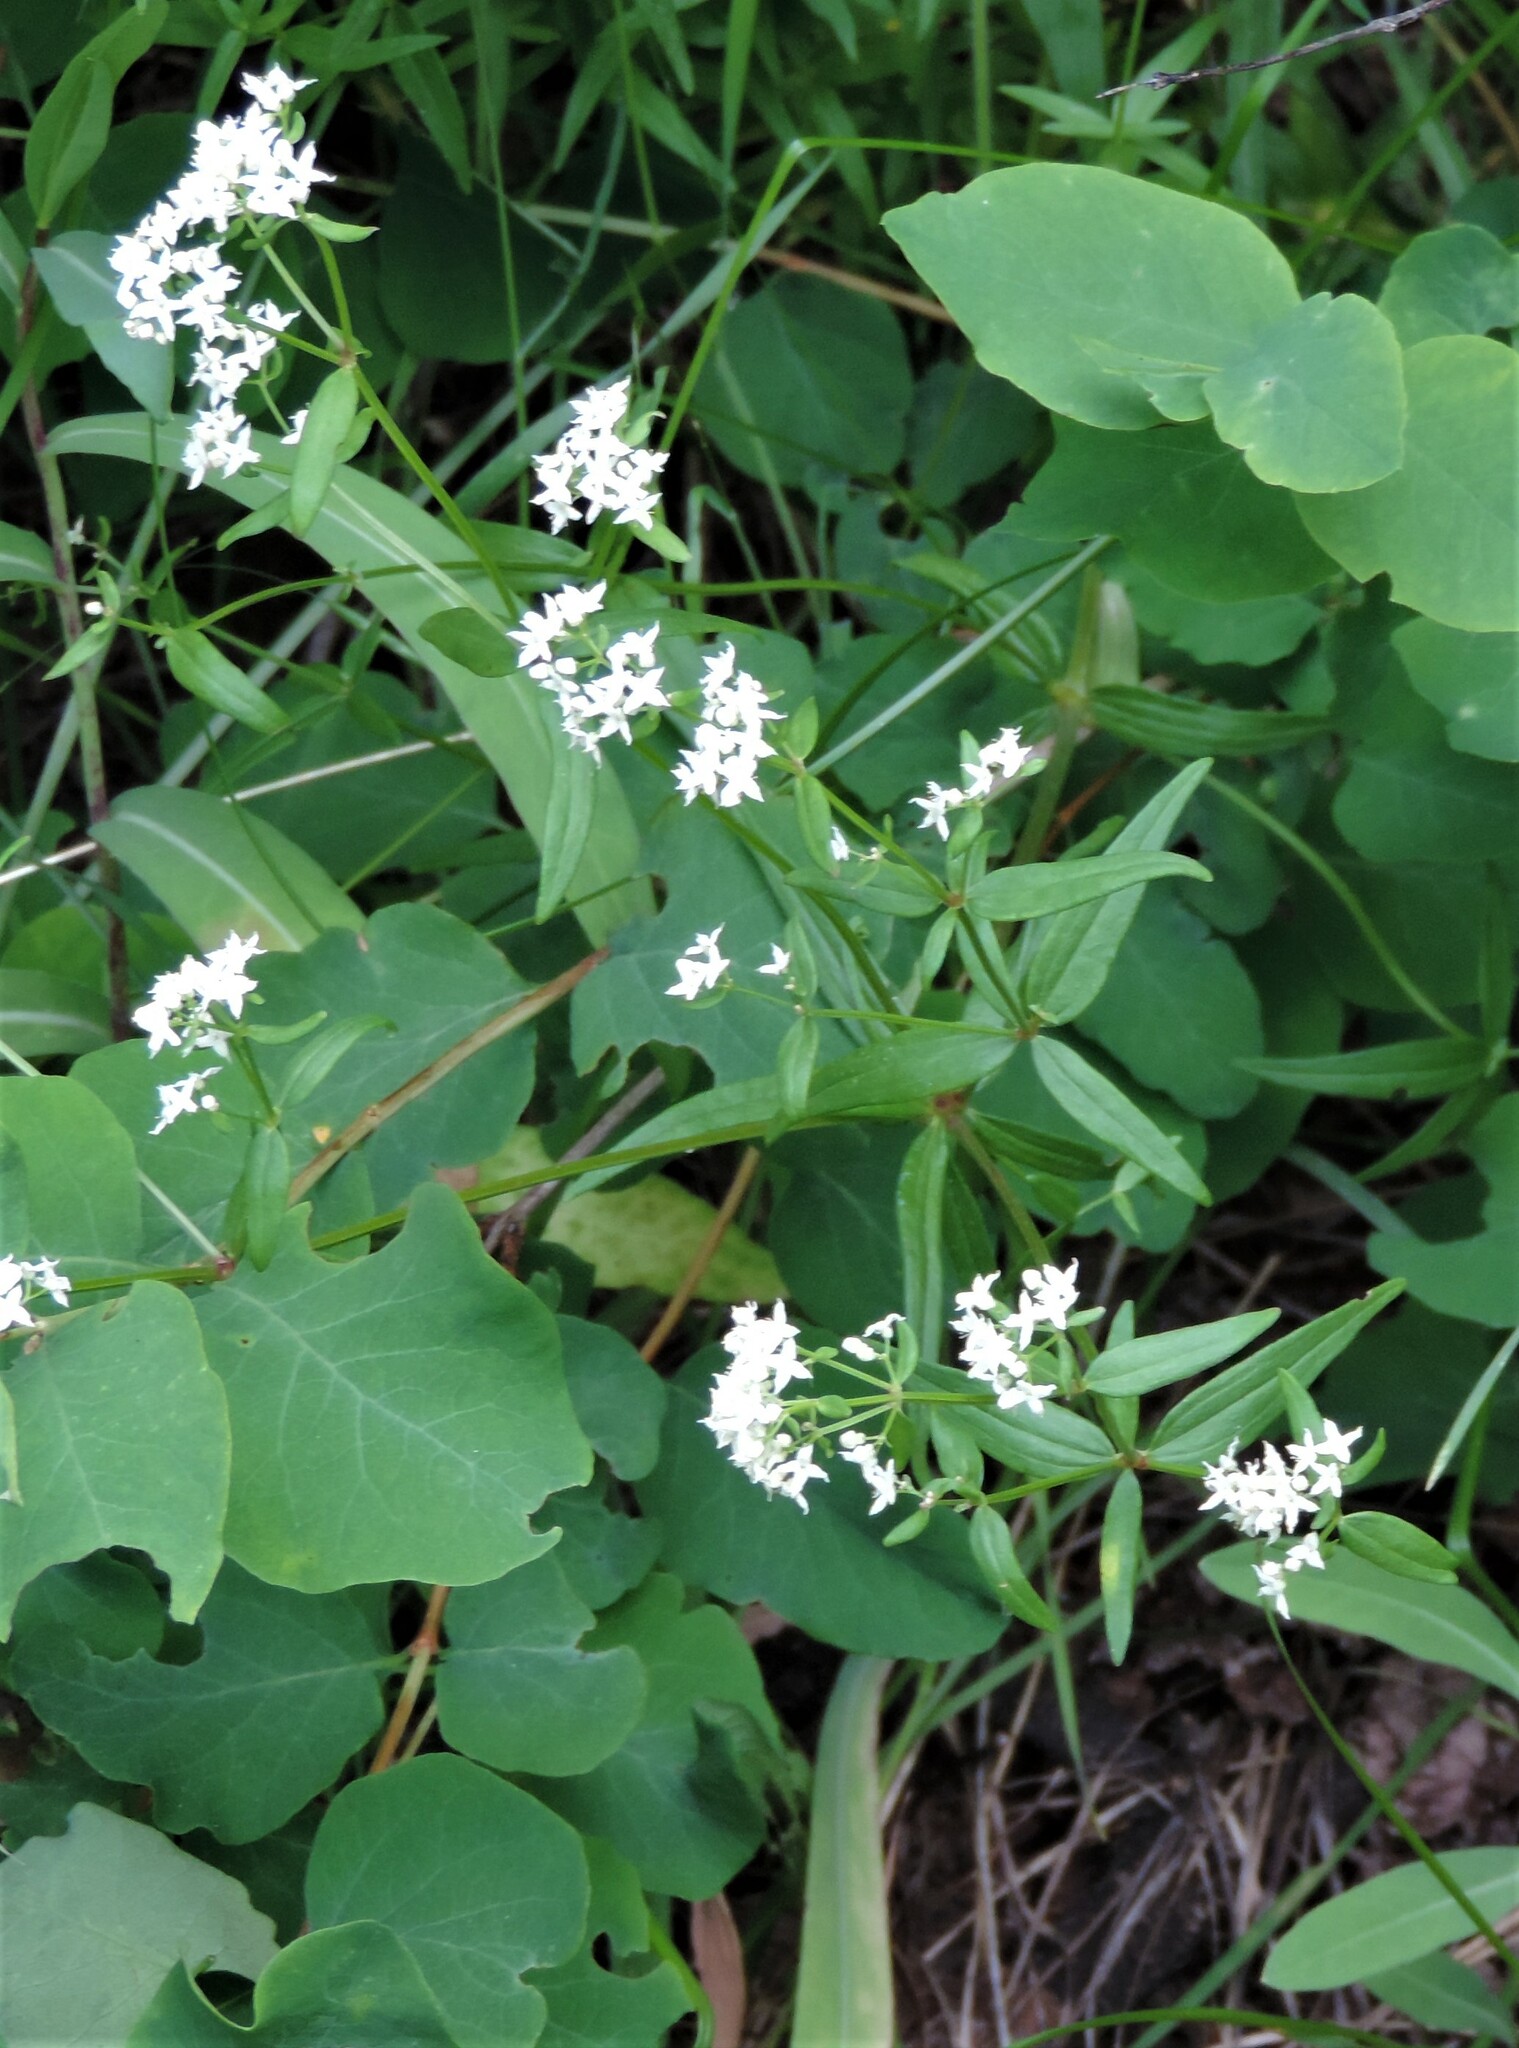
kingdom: Plantae
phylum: Tracheophyta
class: Magnoliopsida
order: Gentianales
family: Rubiaceae
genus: Galium
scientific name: Galium boreale
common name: Northern bedstraw
